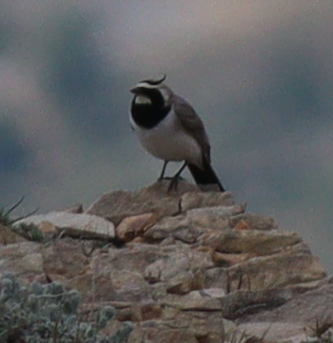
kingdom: Animalia
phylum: Chordata
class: Aves
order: Passeriformes
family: Alaudidae
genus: Eremophila
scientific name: Eremophila alpestris
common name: Horned lark
